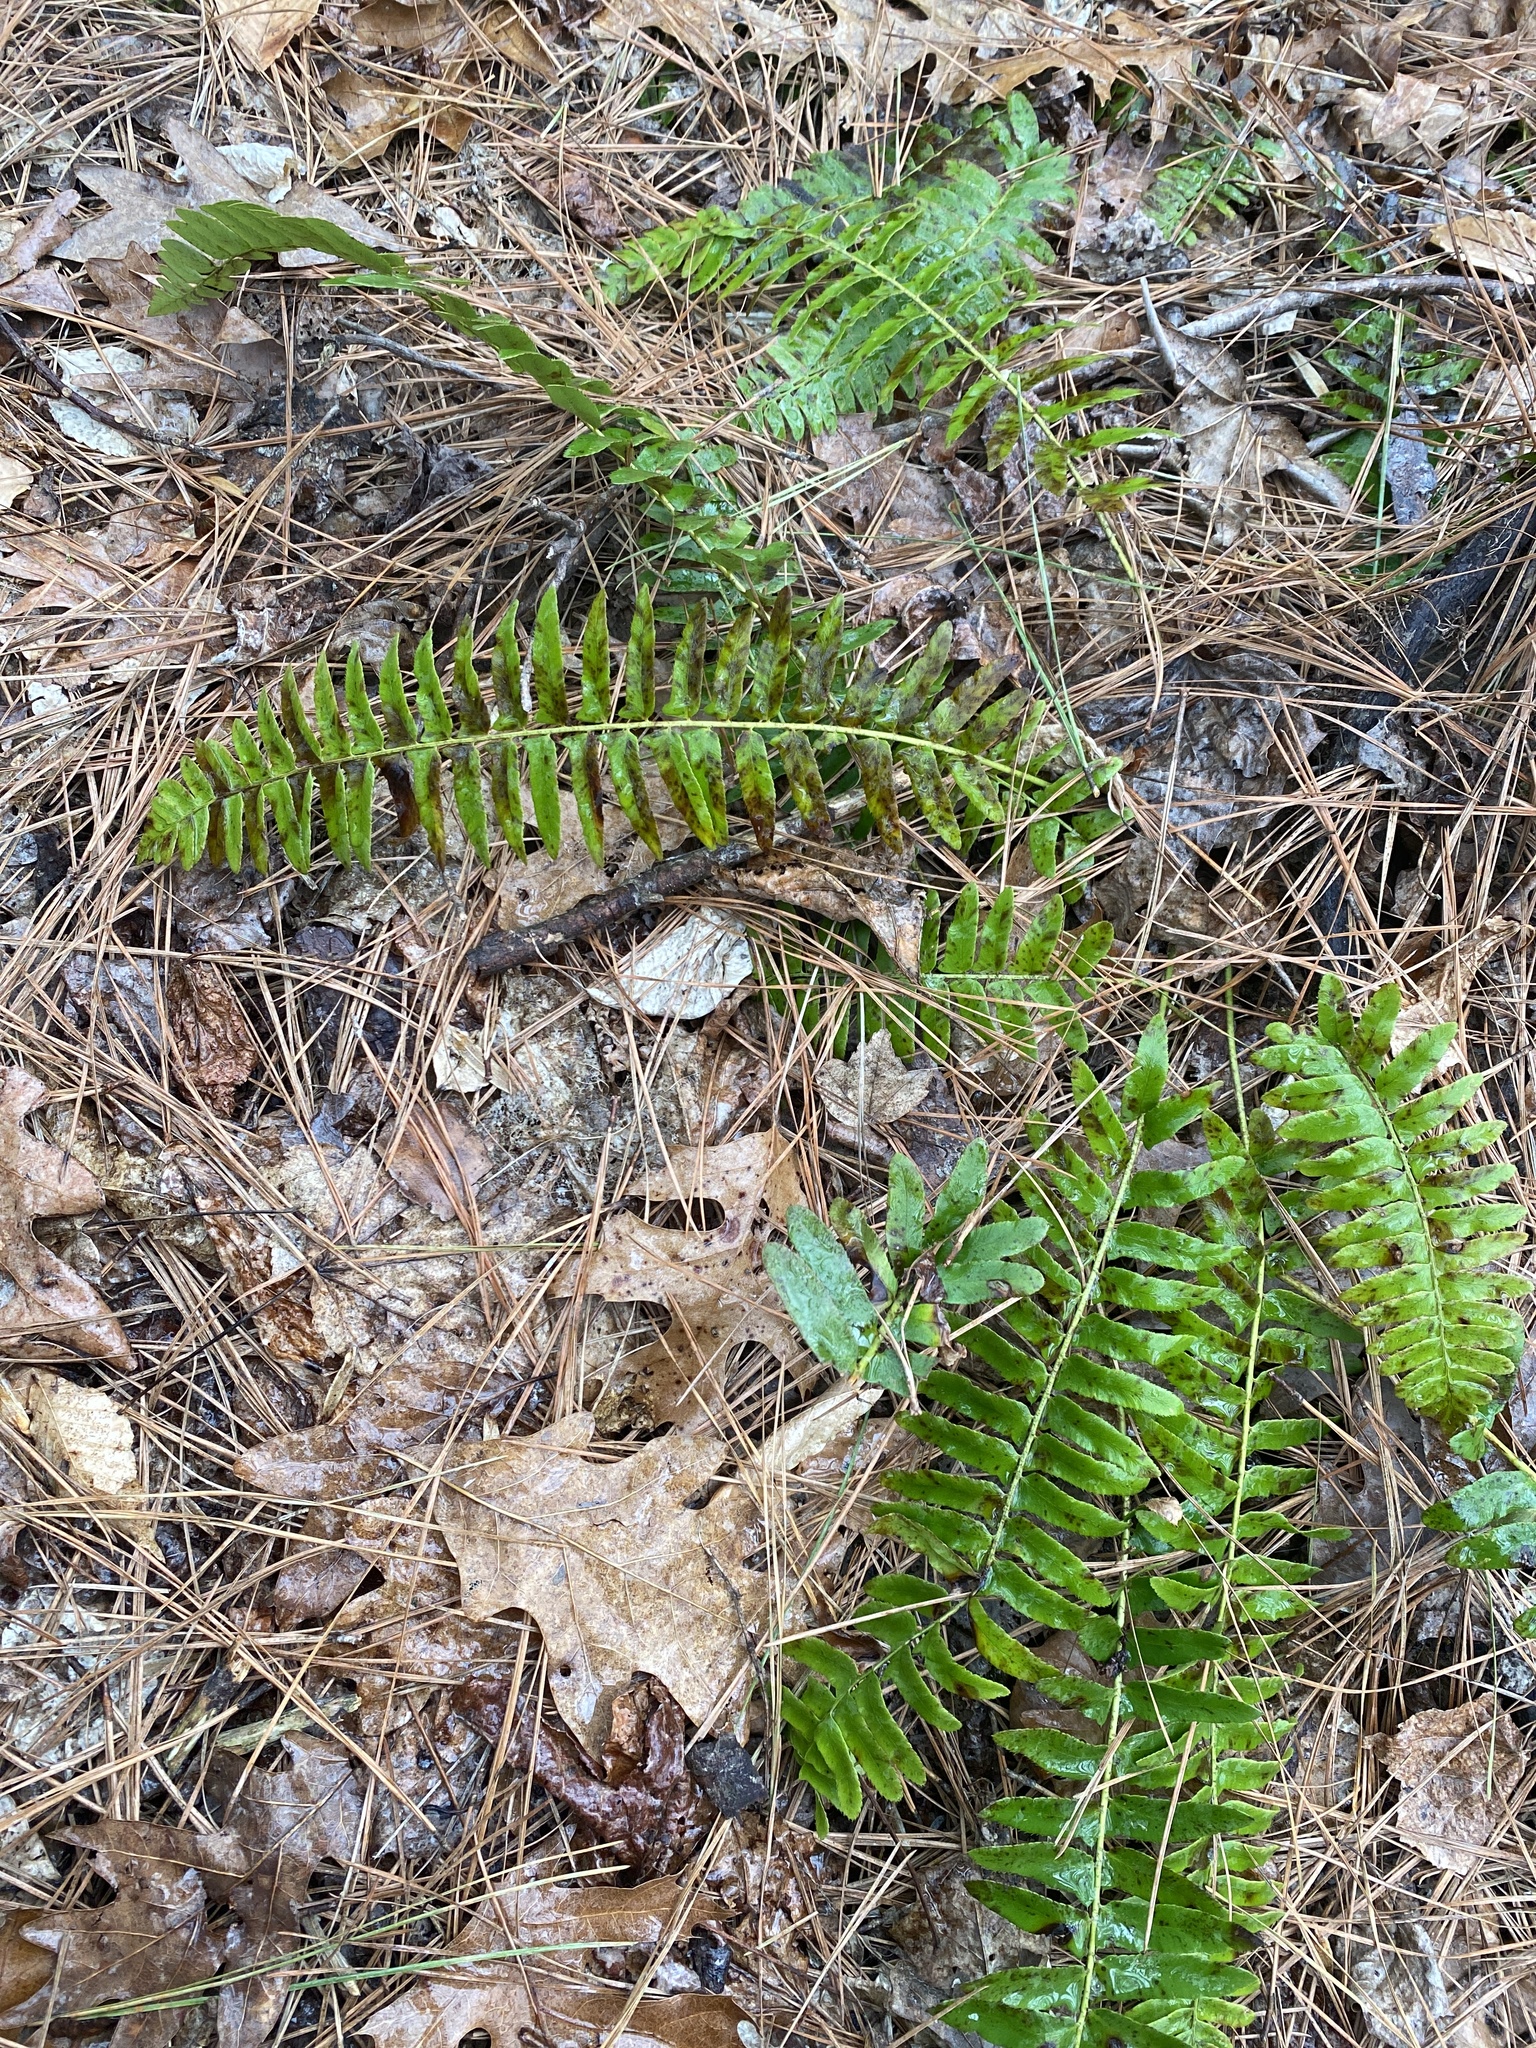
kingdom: Plantae
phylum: Tracheophyta
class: Polypodiopsida
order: Polypodiales
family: Dryopteridaceae
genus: Polystichum
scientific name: Polystichum acrostichoides
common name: Christmas fern
